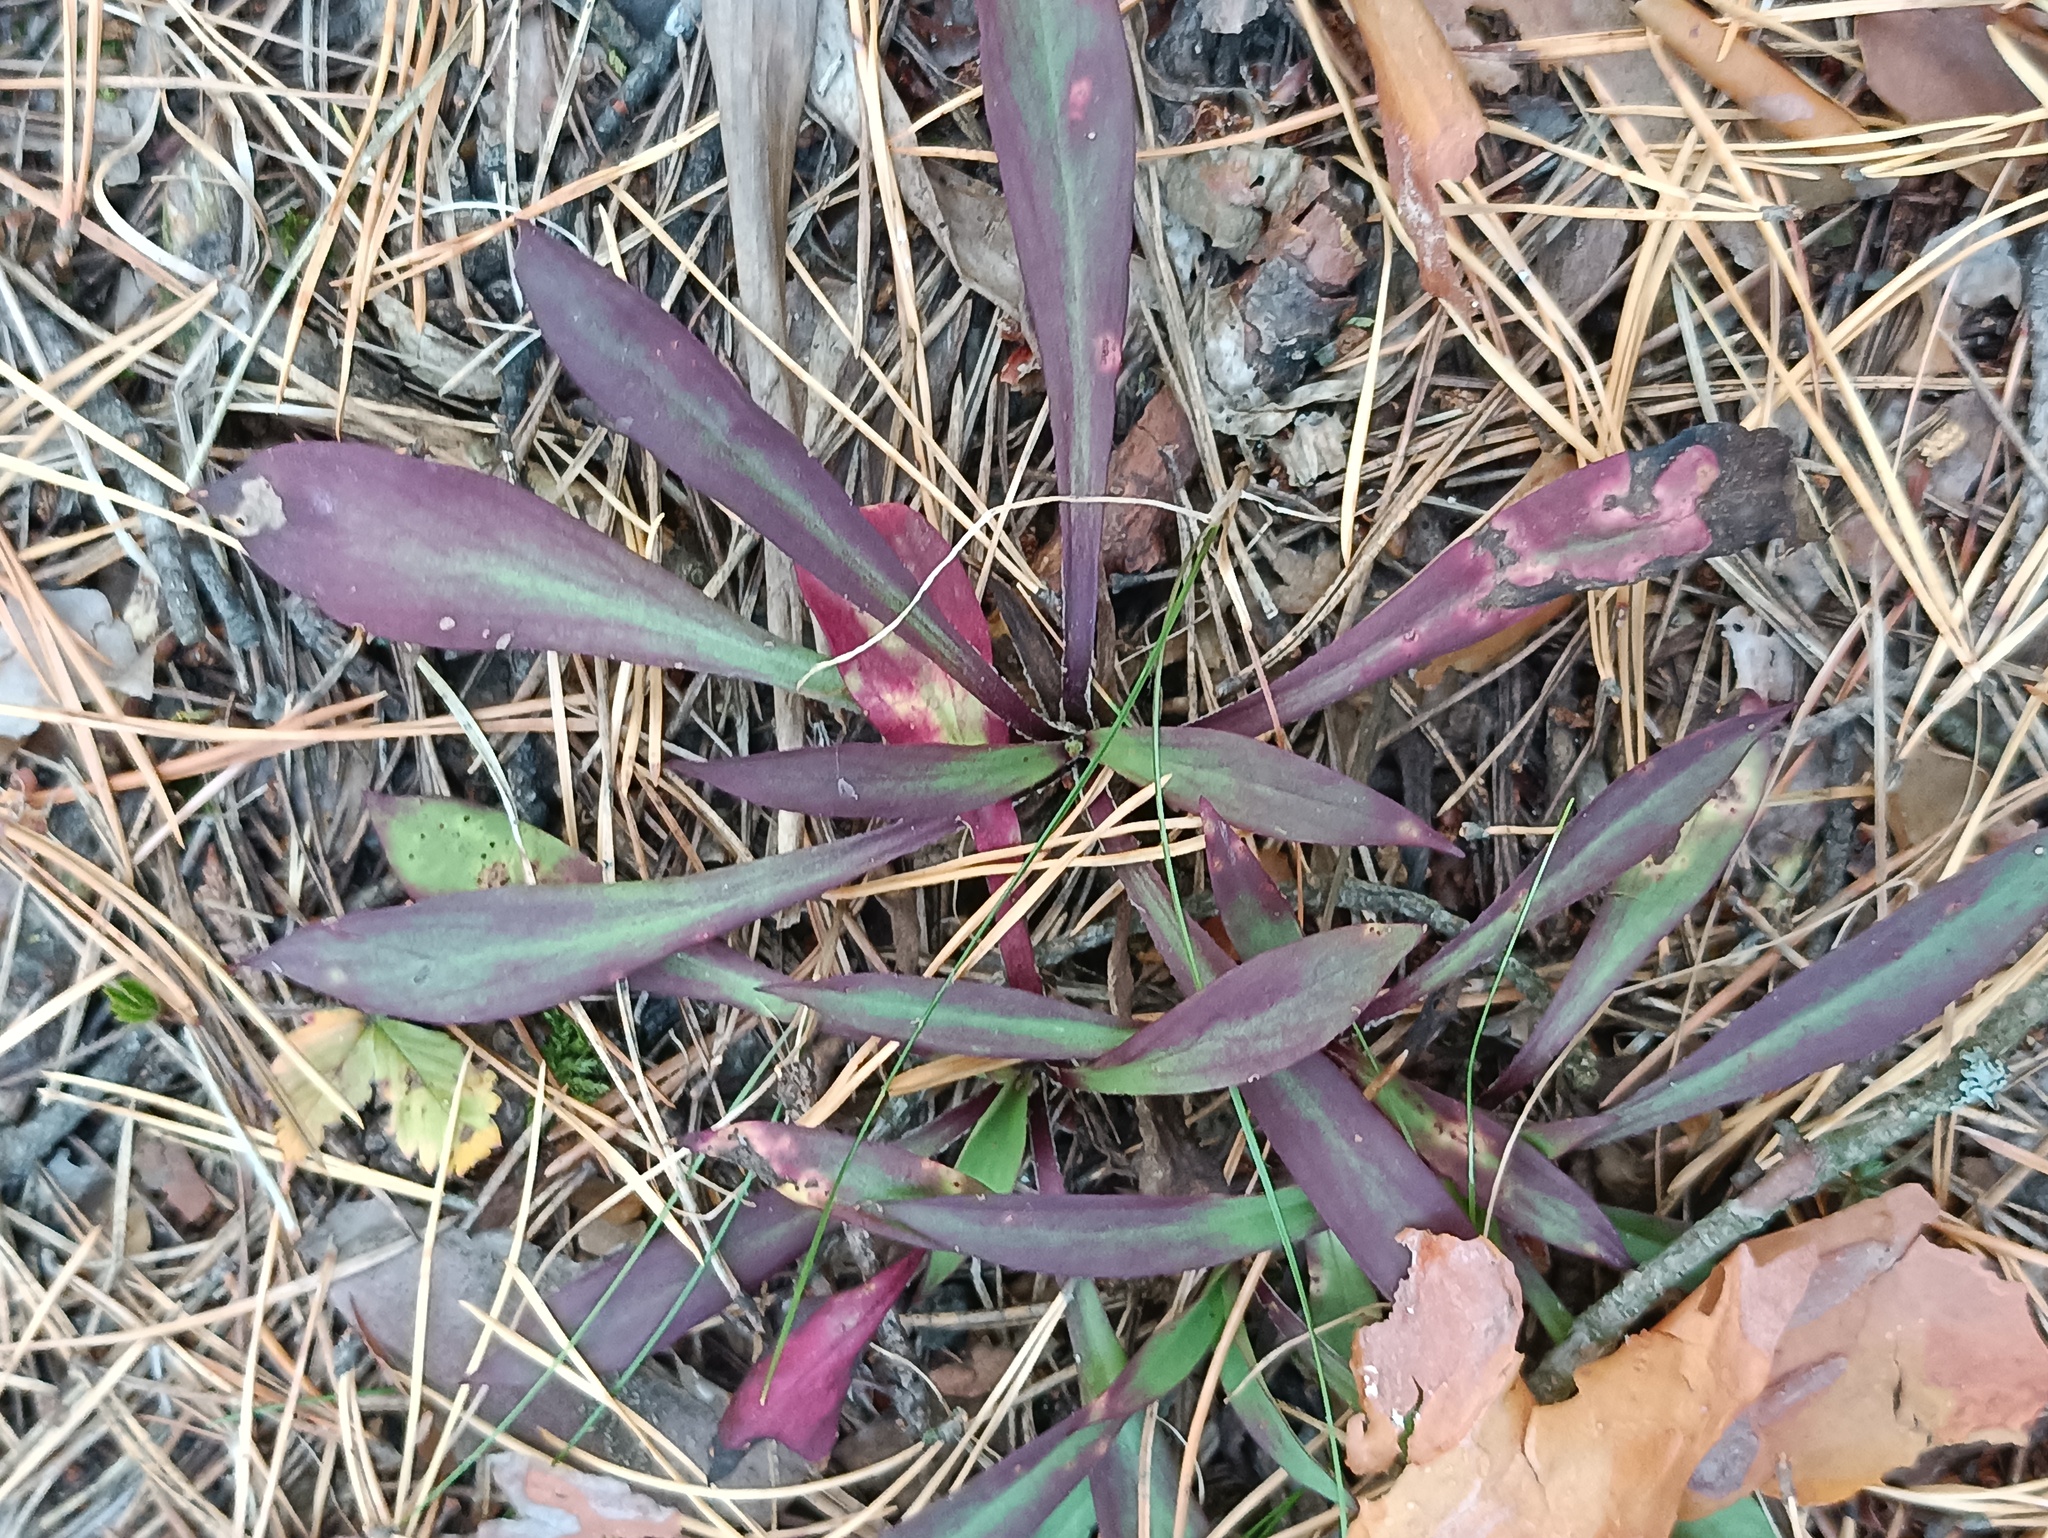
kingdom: Plantae
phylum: Tracheophyta
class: Magnoliopsida
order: Caryophyllales
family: Caryophyllaceae
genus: Viscaria
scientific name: Viscaria vulgaris
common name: Clammy campion
